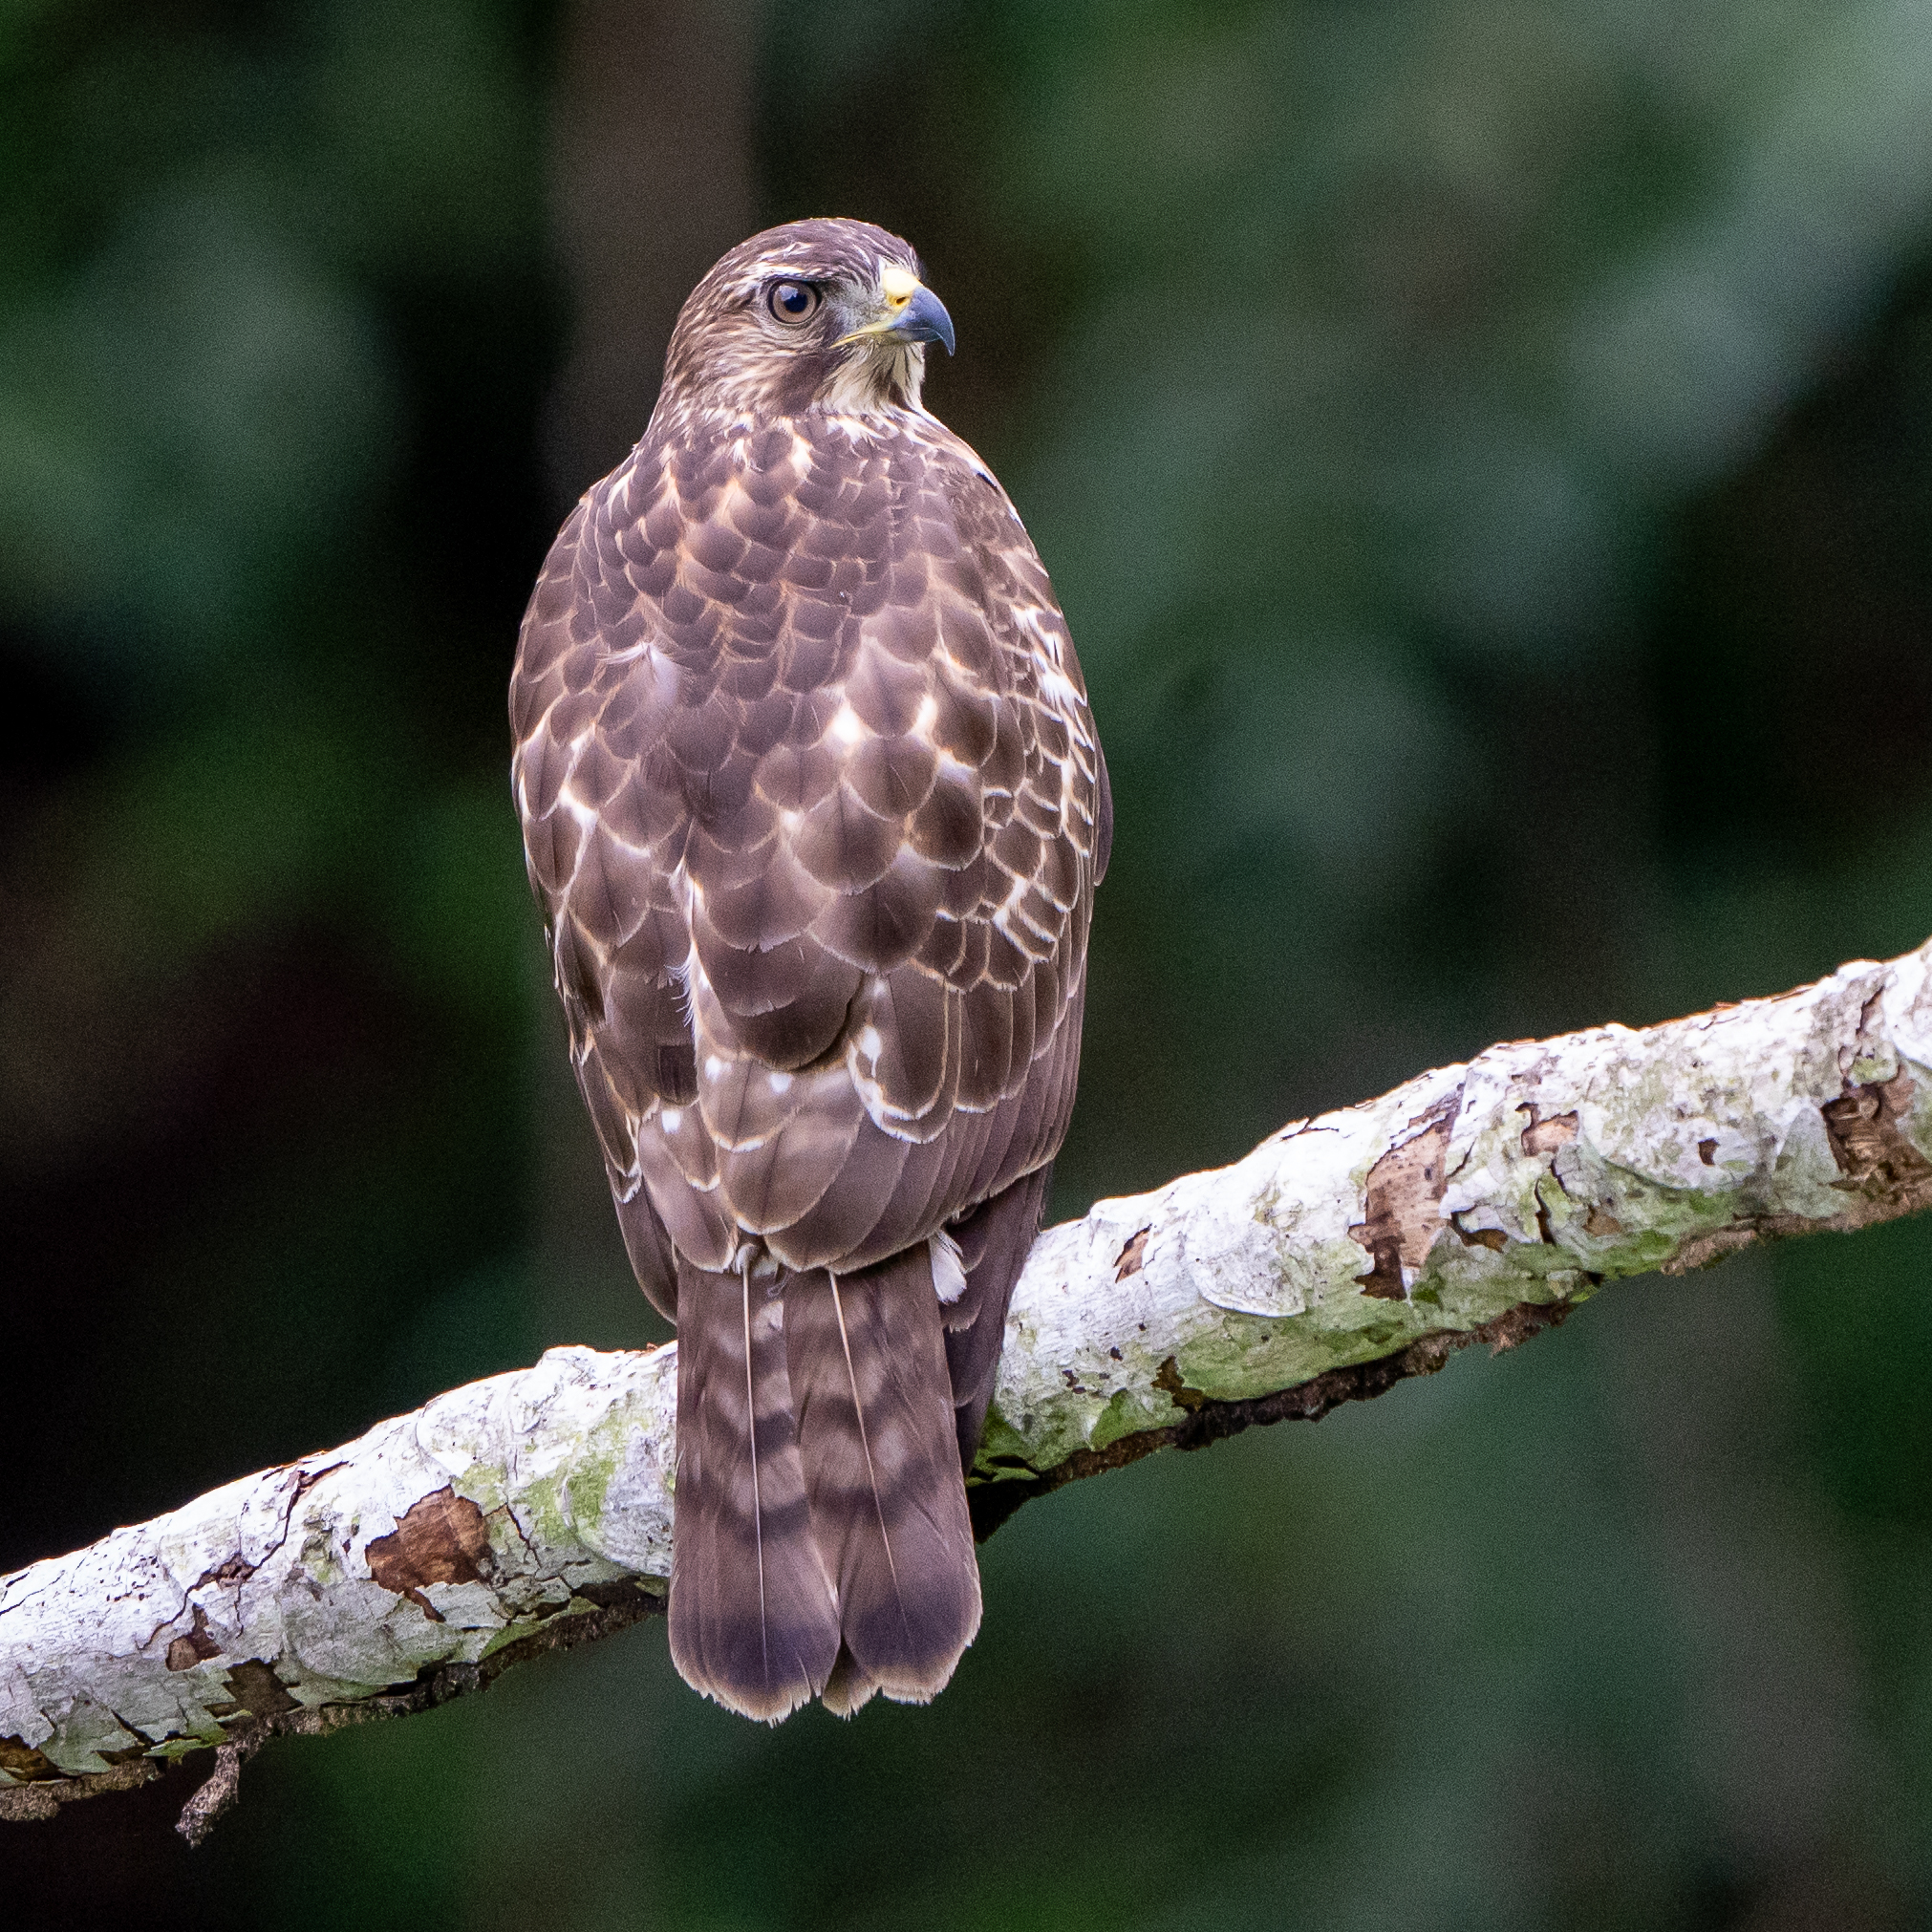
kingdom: Animalia
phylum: Chordata
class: Aves
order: Accipitriformes
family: Accipitridae
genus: Buteo
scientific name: Buteo platypterus
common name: Broad-winged hawk
